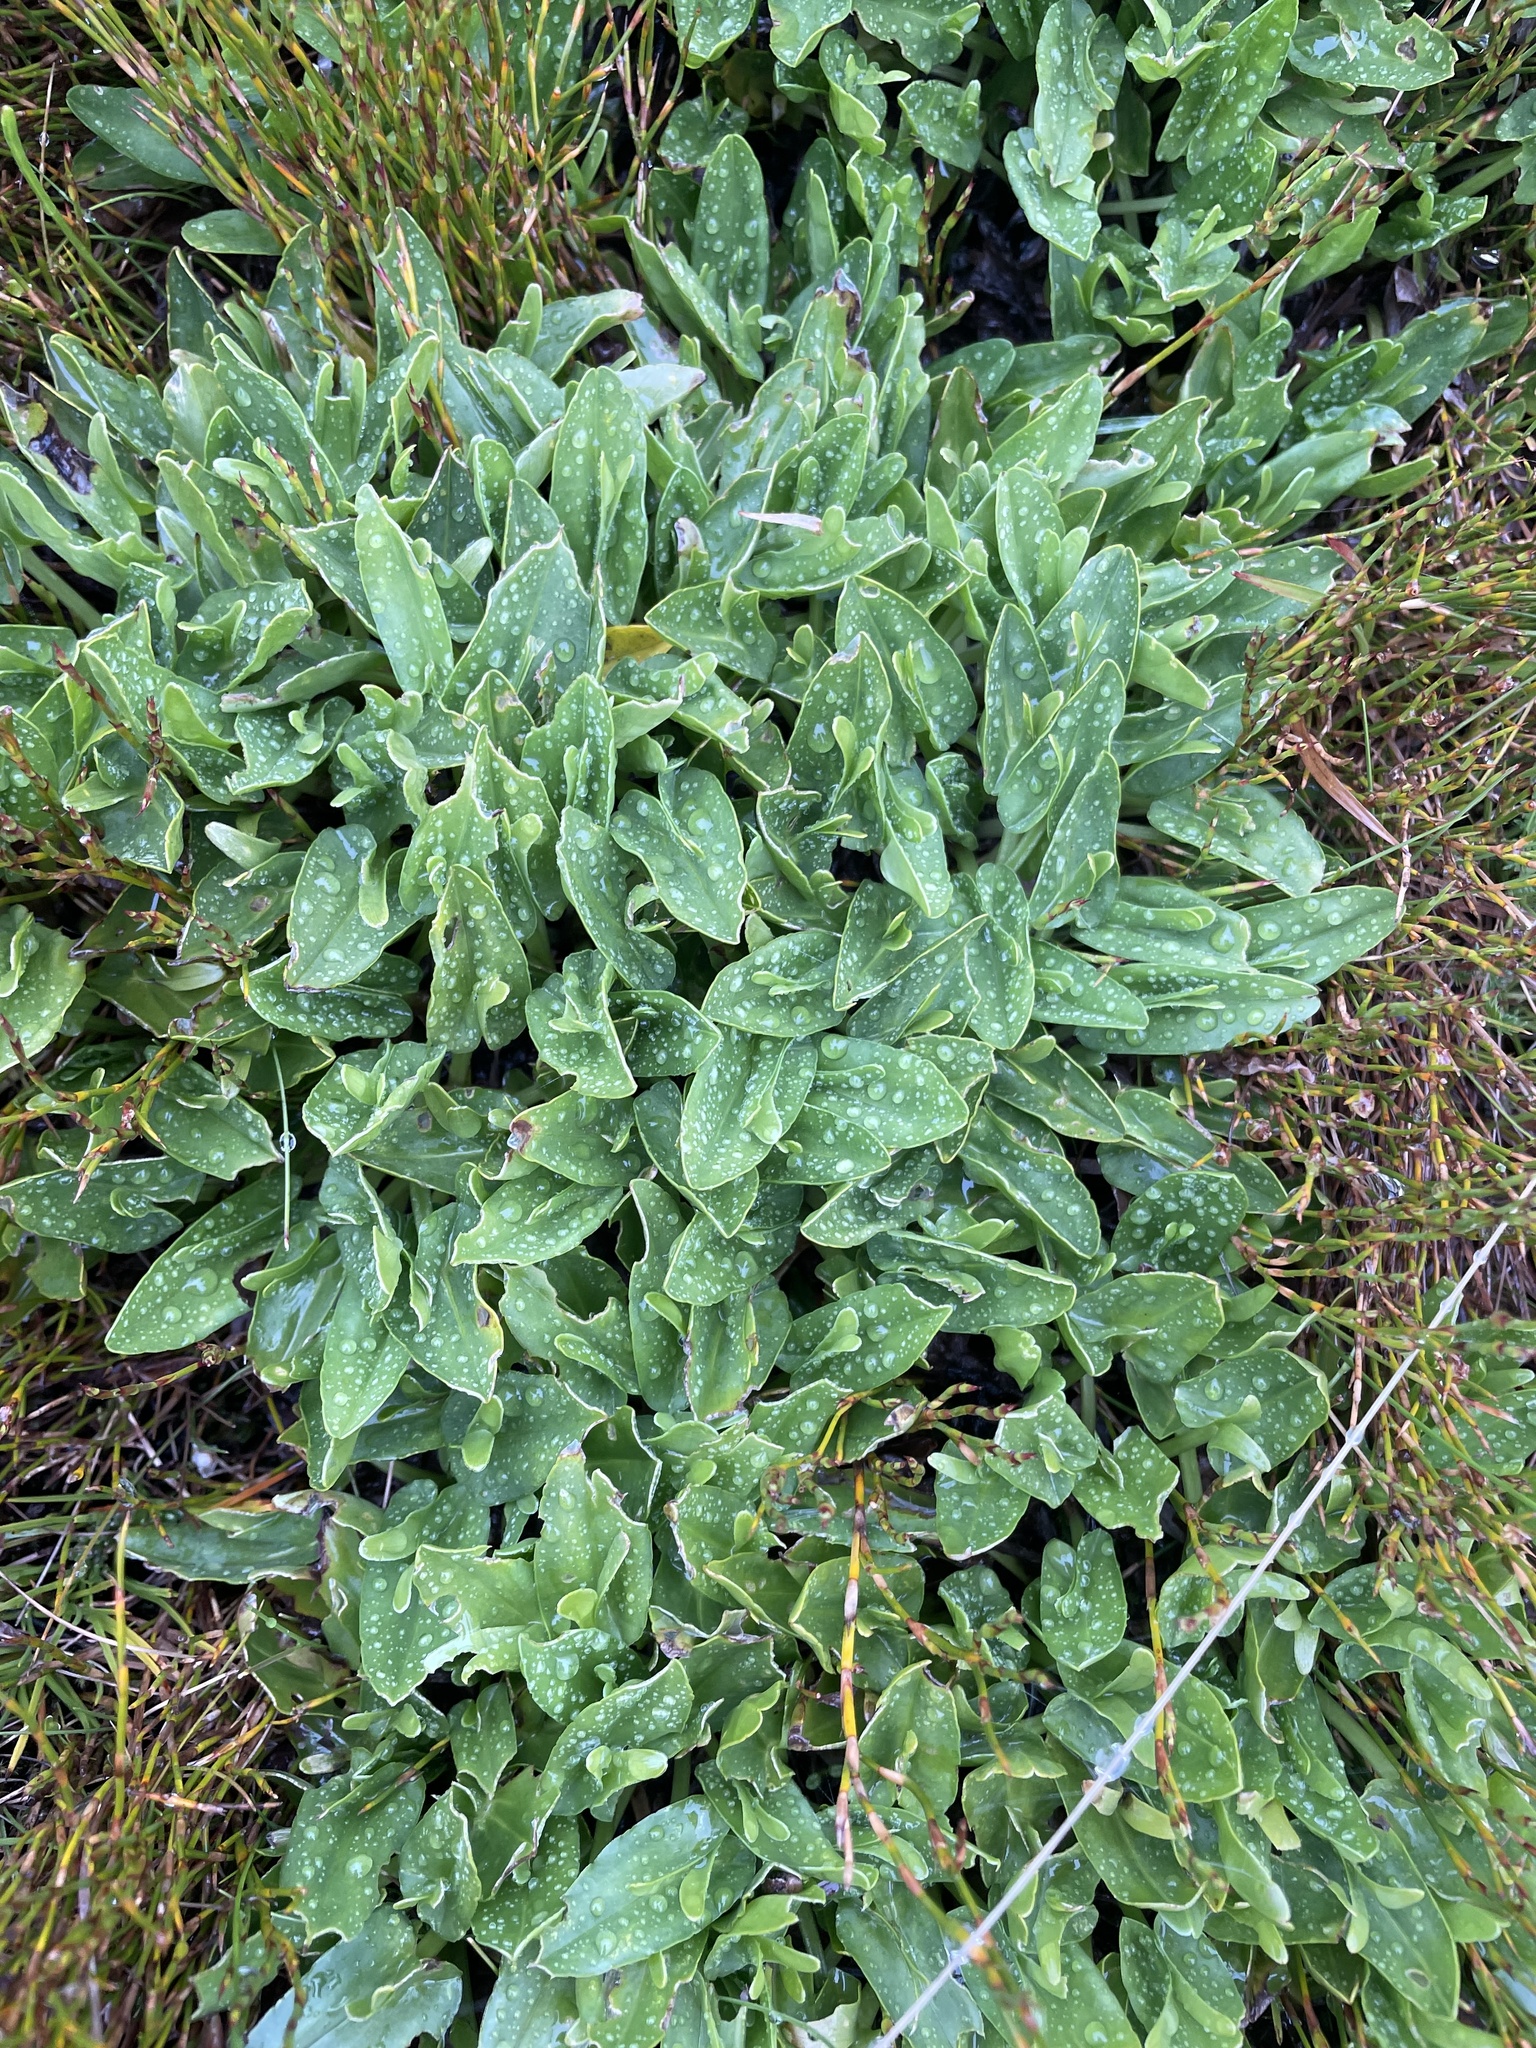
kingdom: Plantae
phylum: Tracheophyta
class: Magnoliopsida
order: Ranunculales
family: Ranunculaceae
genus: Caltha
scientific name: Caltha introloba
